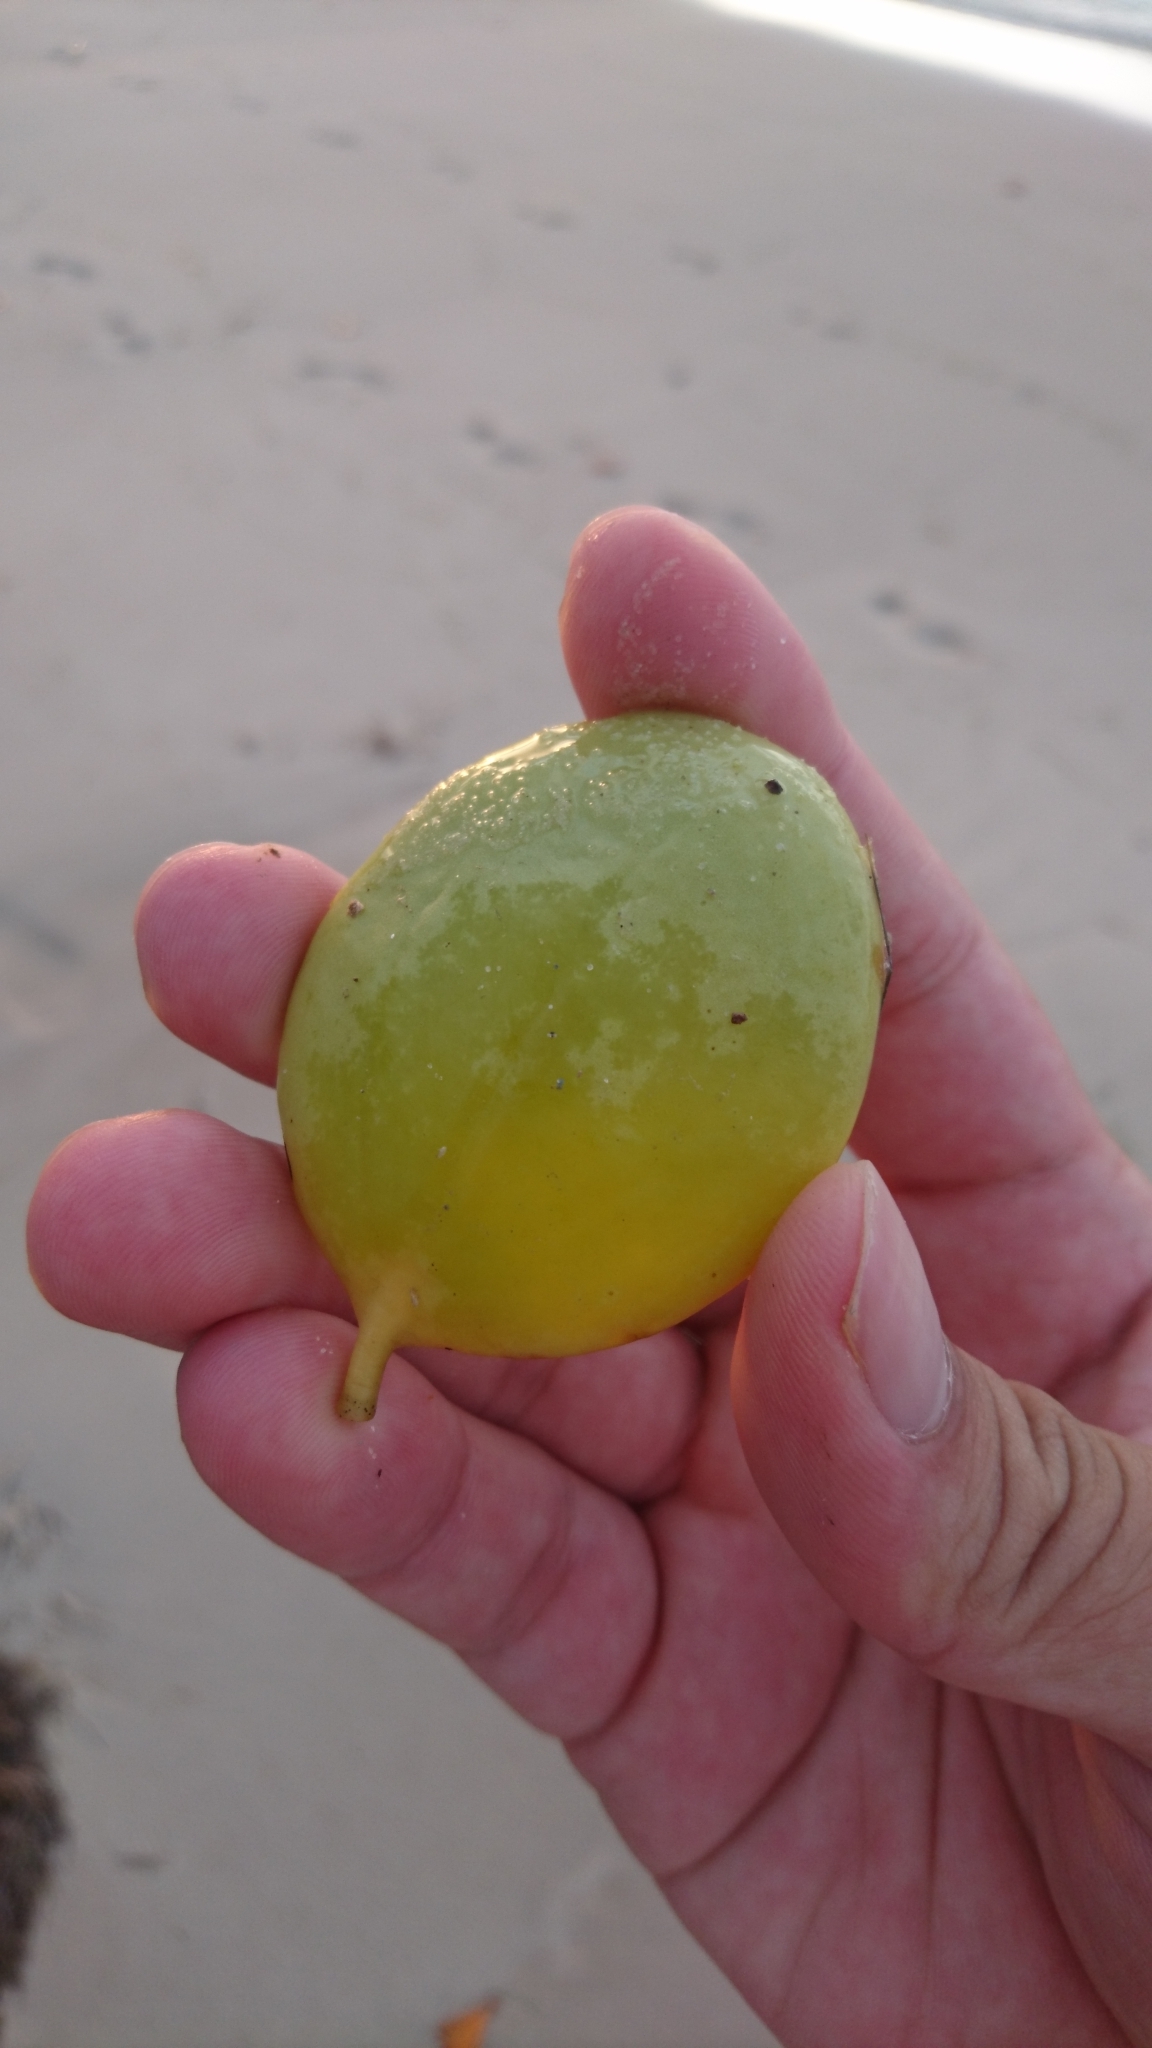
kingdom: Plantae
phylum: Tracheophyta
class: Magnoliopsida
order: Santalales
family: Loranthaceae
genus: Amyema
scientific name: Amyema mackayensis
